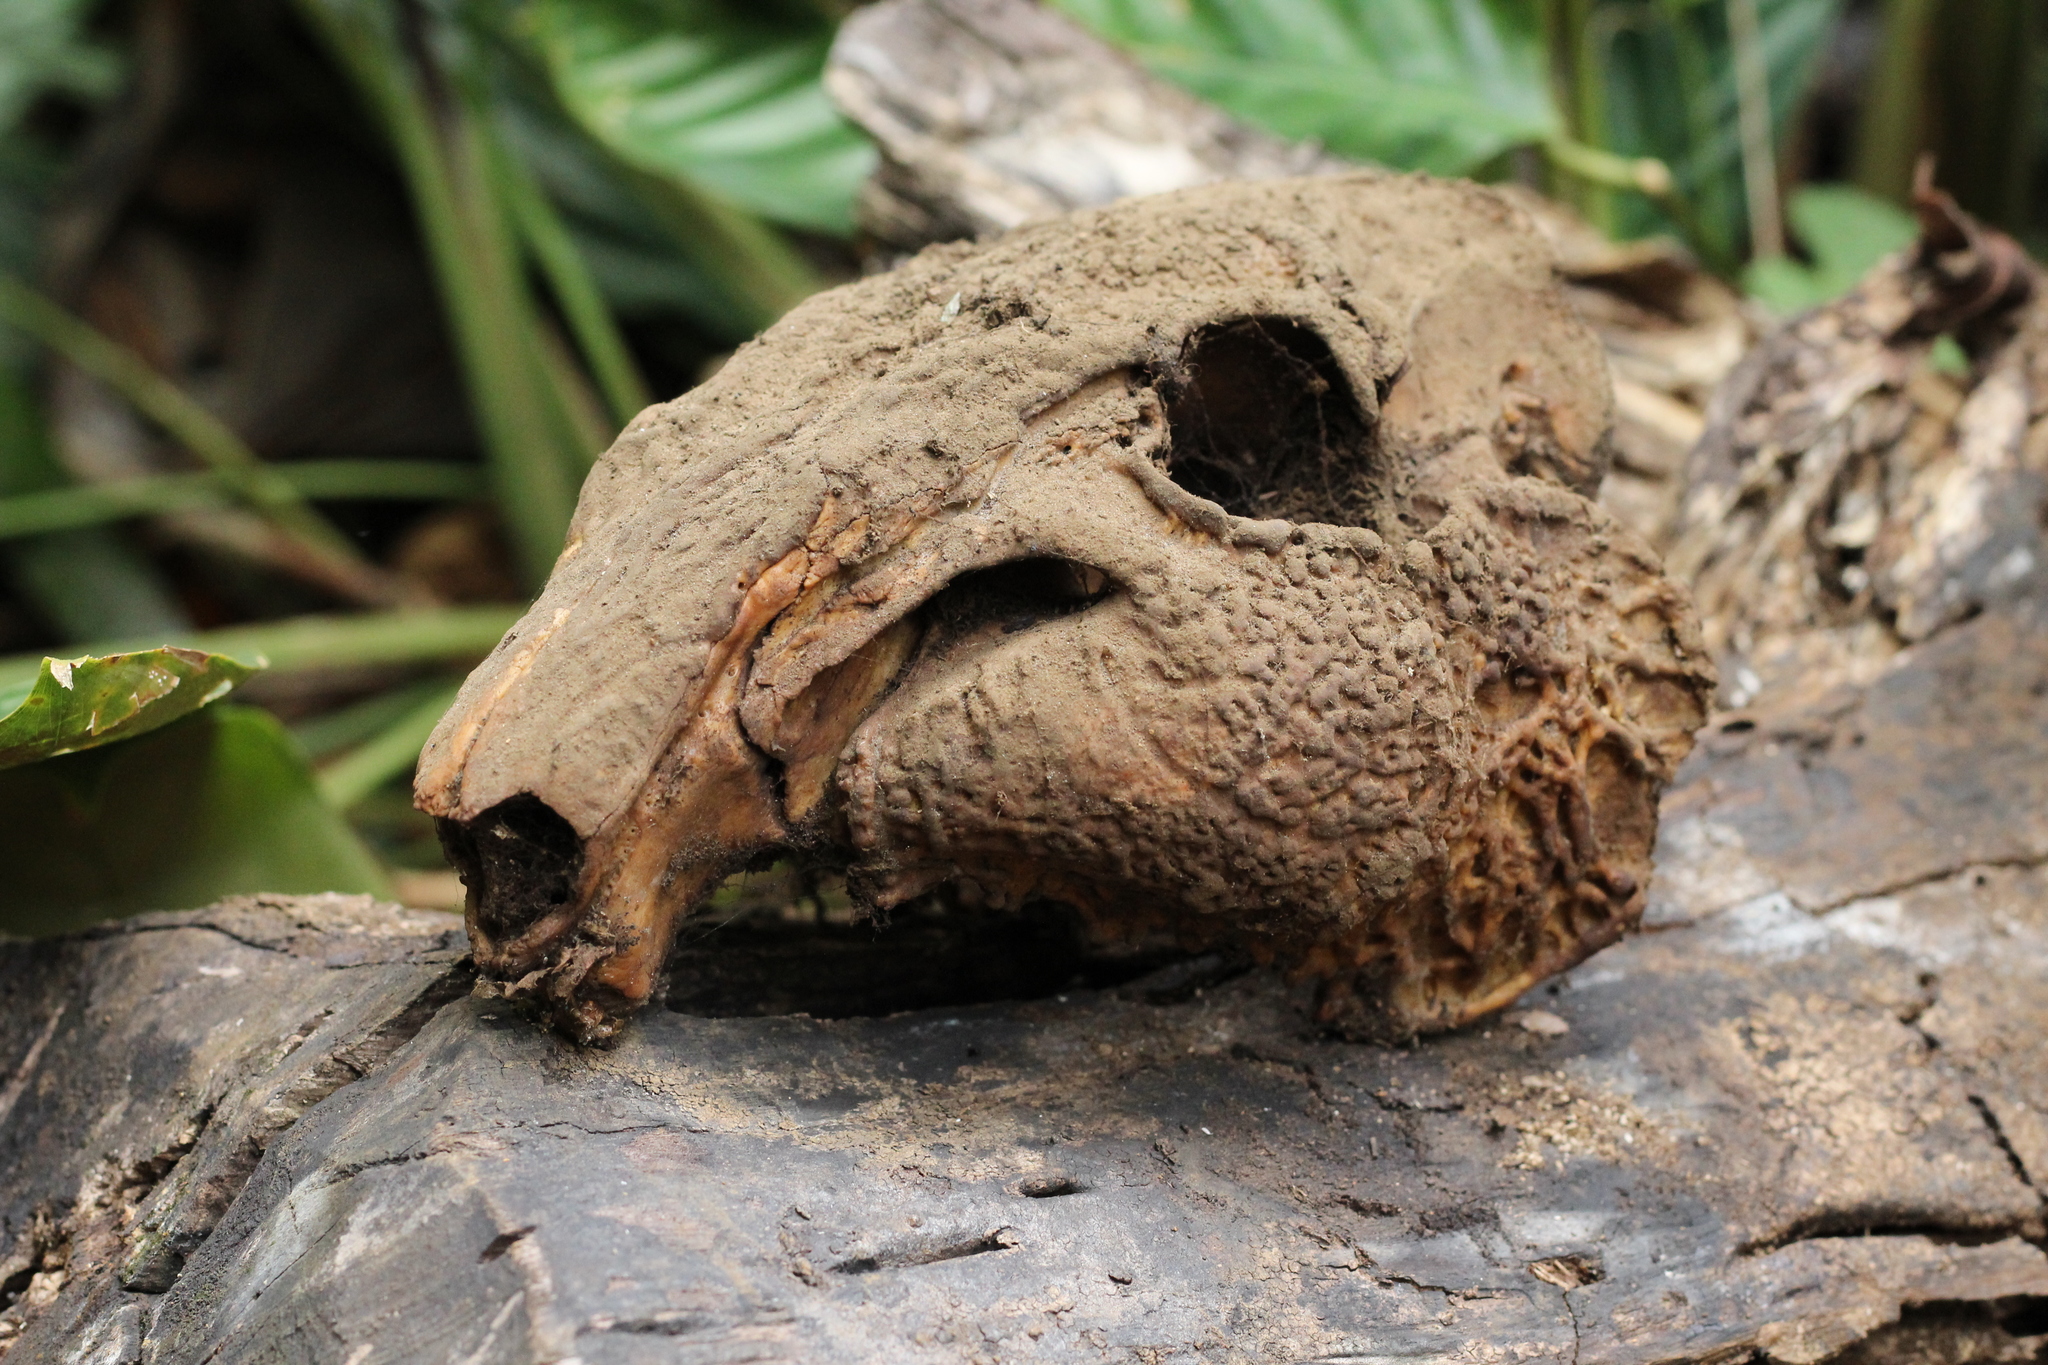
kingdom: Animalia
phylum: Chordata
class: Mammalia
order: Rodentia
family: Cuniculidae
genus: Cuniculus
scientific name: Cuniculus paca
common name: Lowland paca
